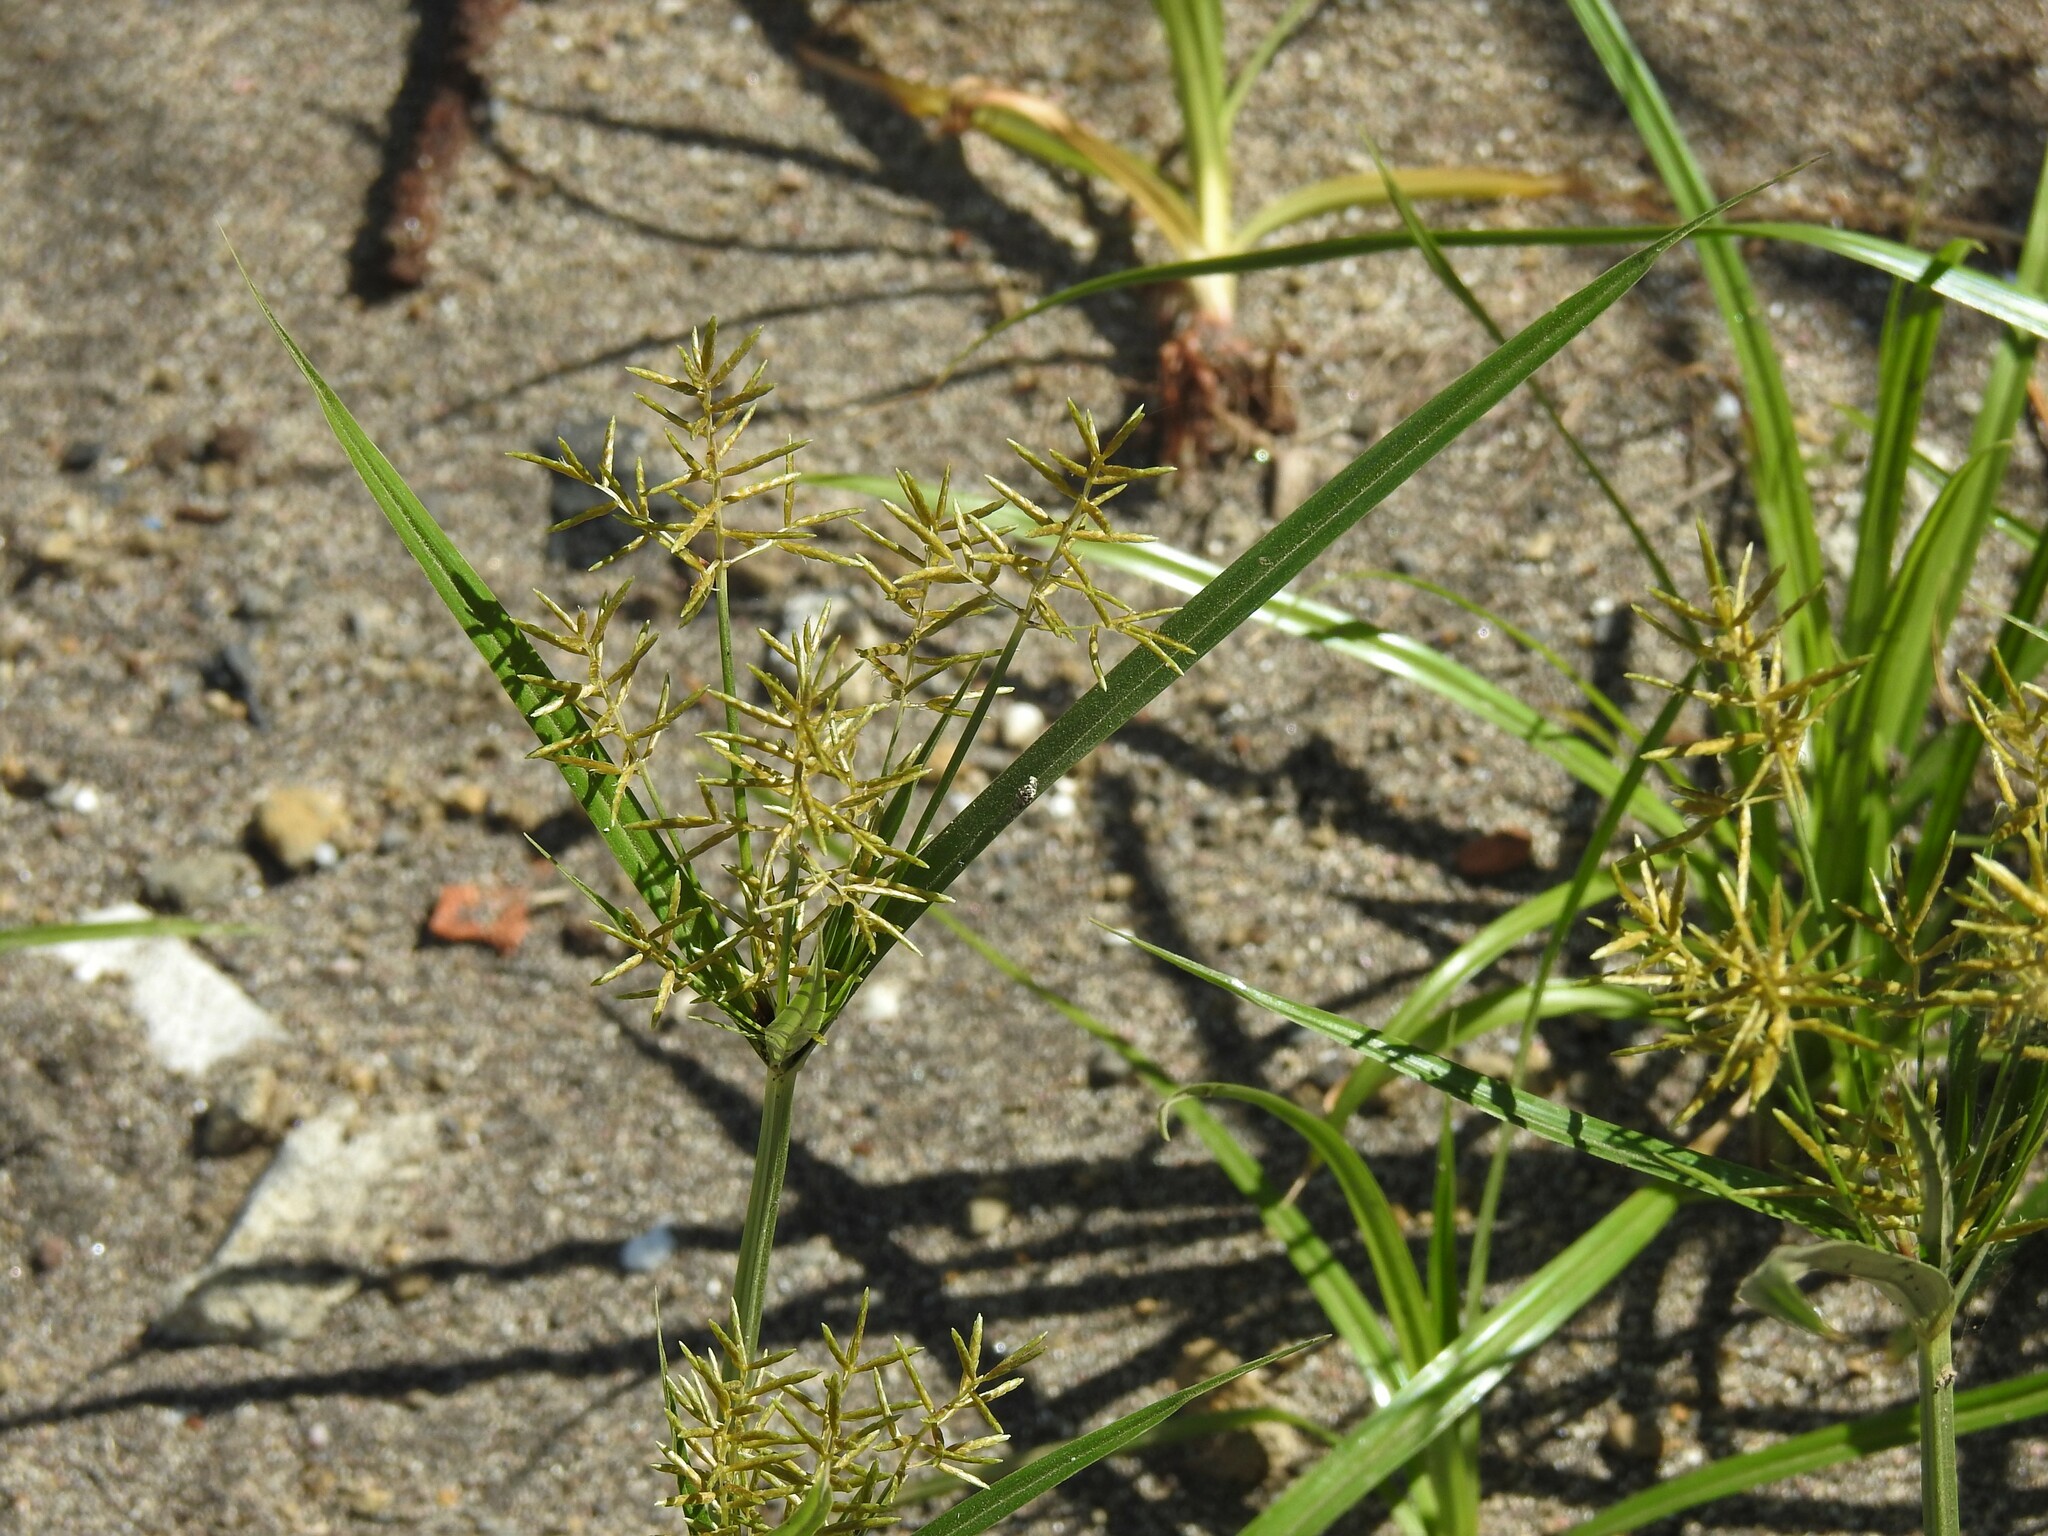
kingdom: Plantae
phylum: Tracheophyta
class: Liliopsida
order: Poales
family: Cyperaceae
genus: Cyperus
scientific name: Cyperus esculentus
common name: Yellow nutsedge
